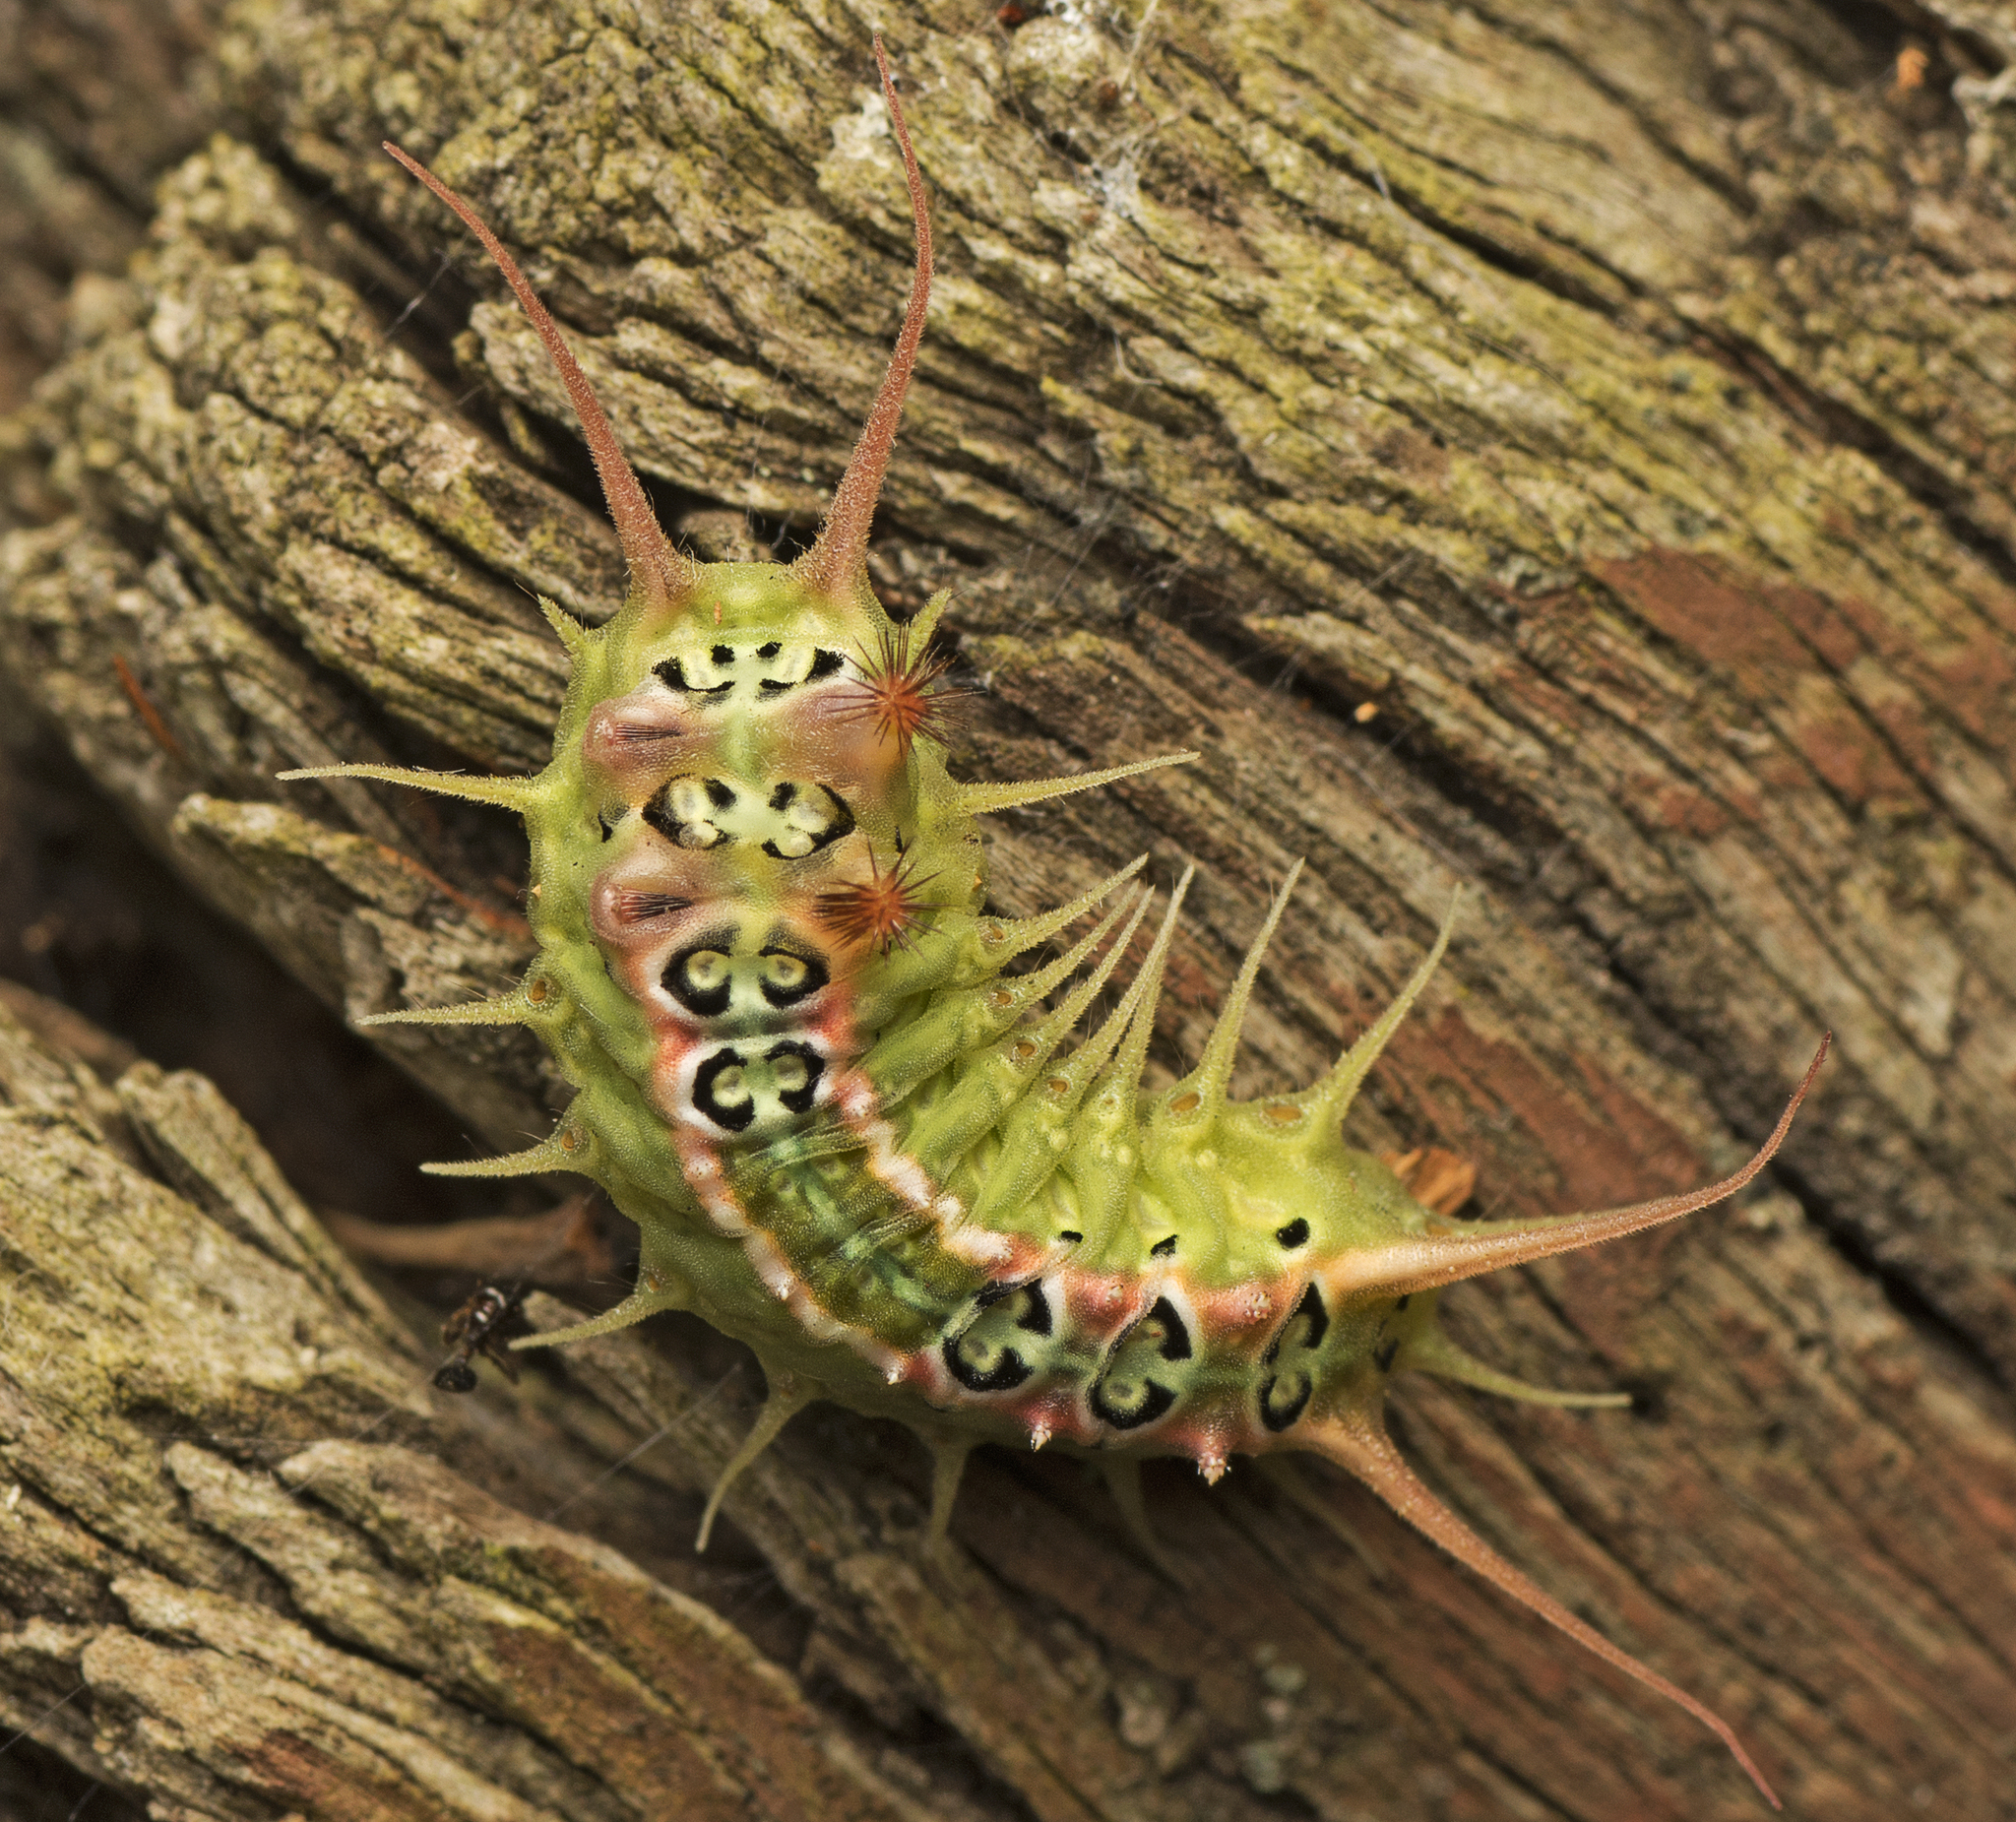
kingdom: Animalia
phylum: Arthropoda
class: Insecta
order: Lepidoptera
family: Limacodidae
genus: Doratifera
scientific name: Doratifera quadriguttata
